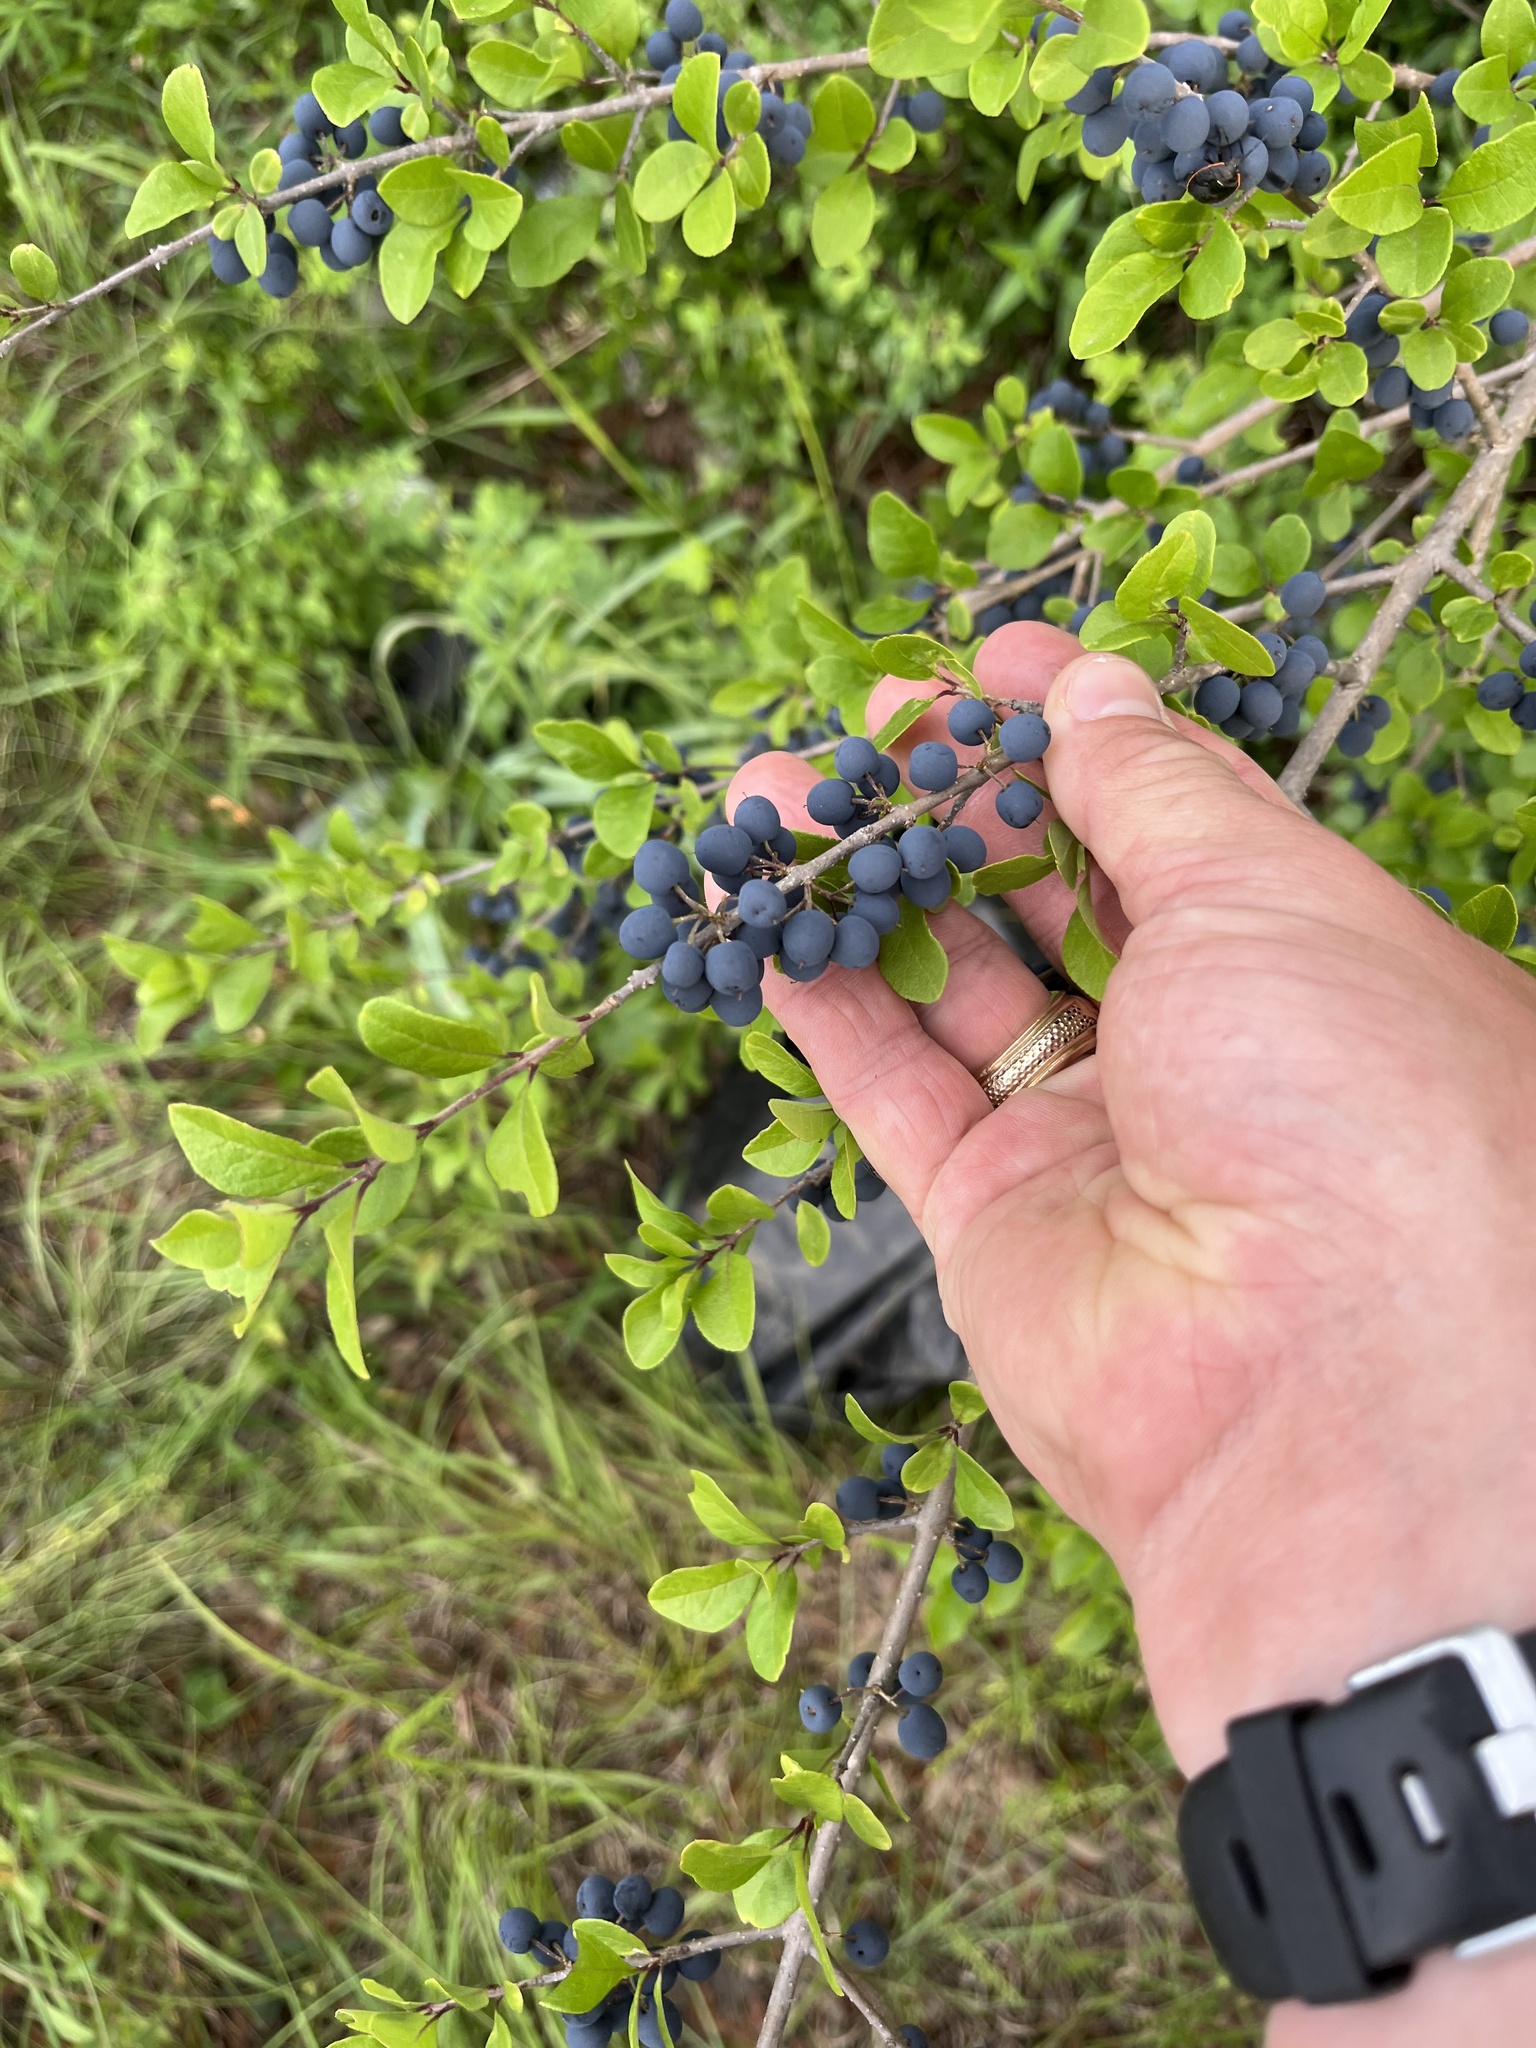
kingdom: Plantae
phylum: Tracheophyta
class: Magnoliopsida
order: Lamiales
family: Oleaceae
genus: Forestiera
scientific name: Forestiera pubescens
